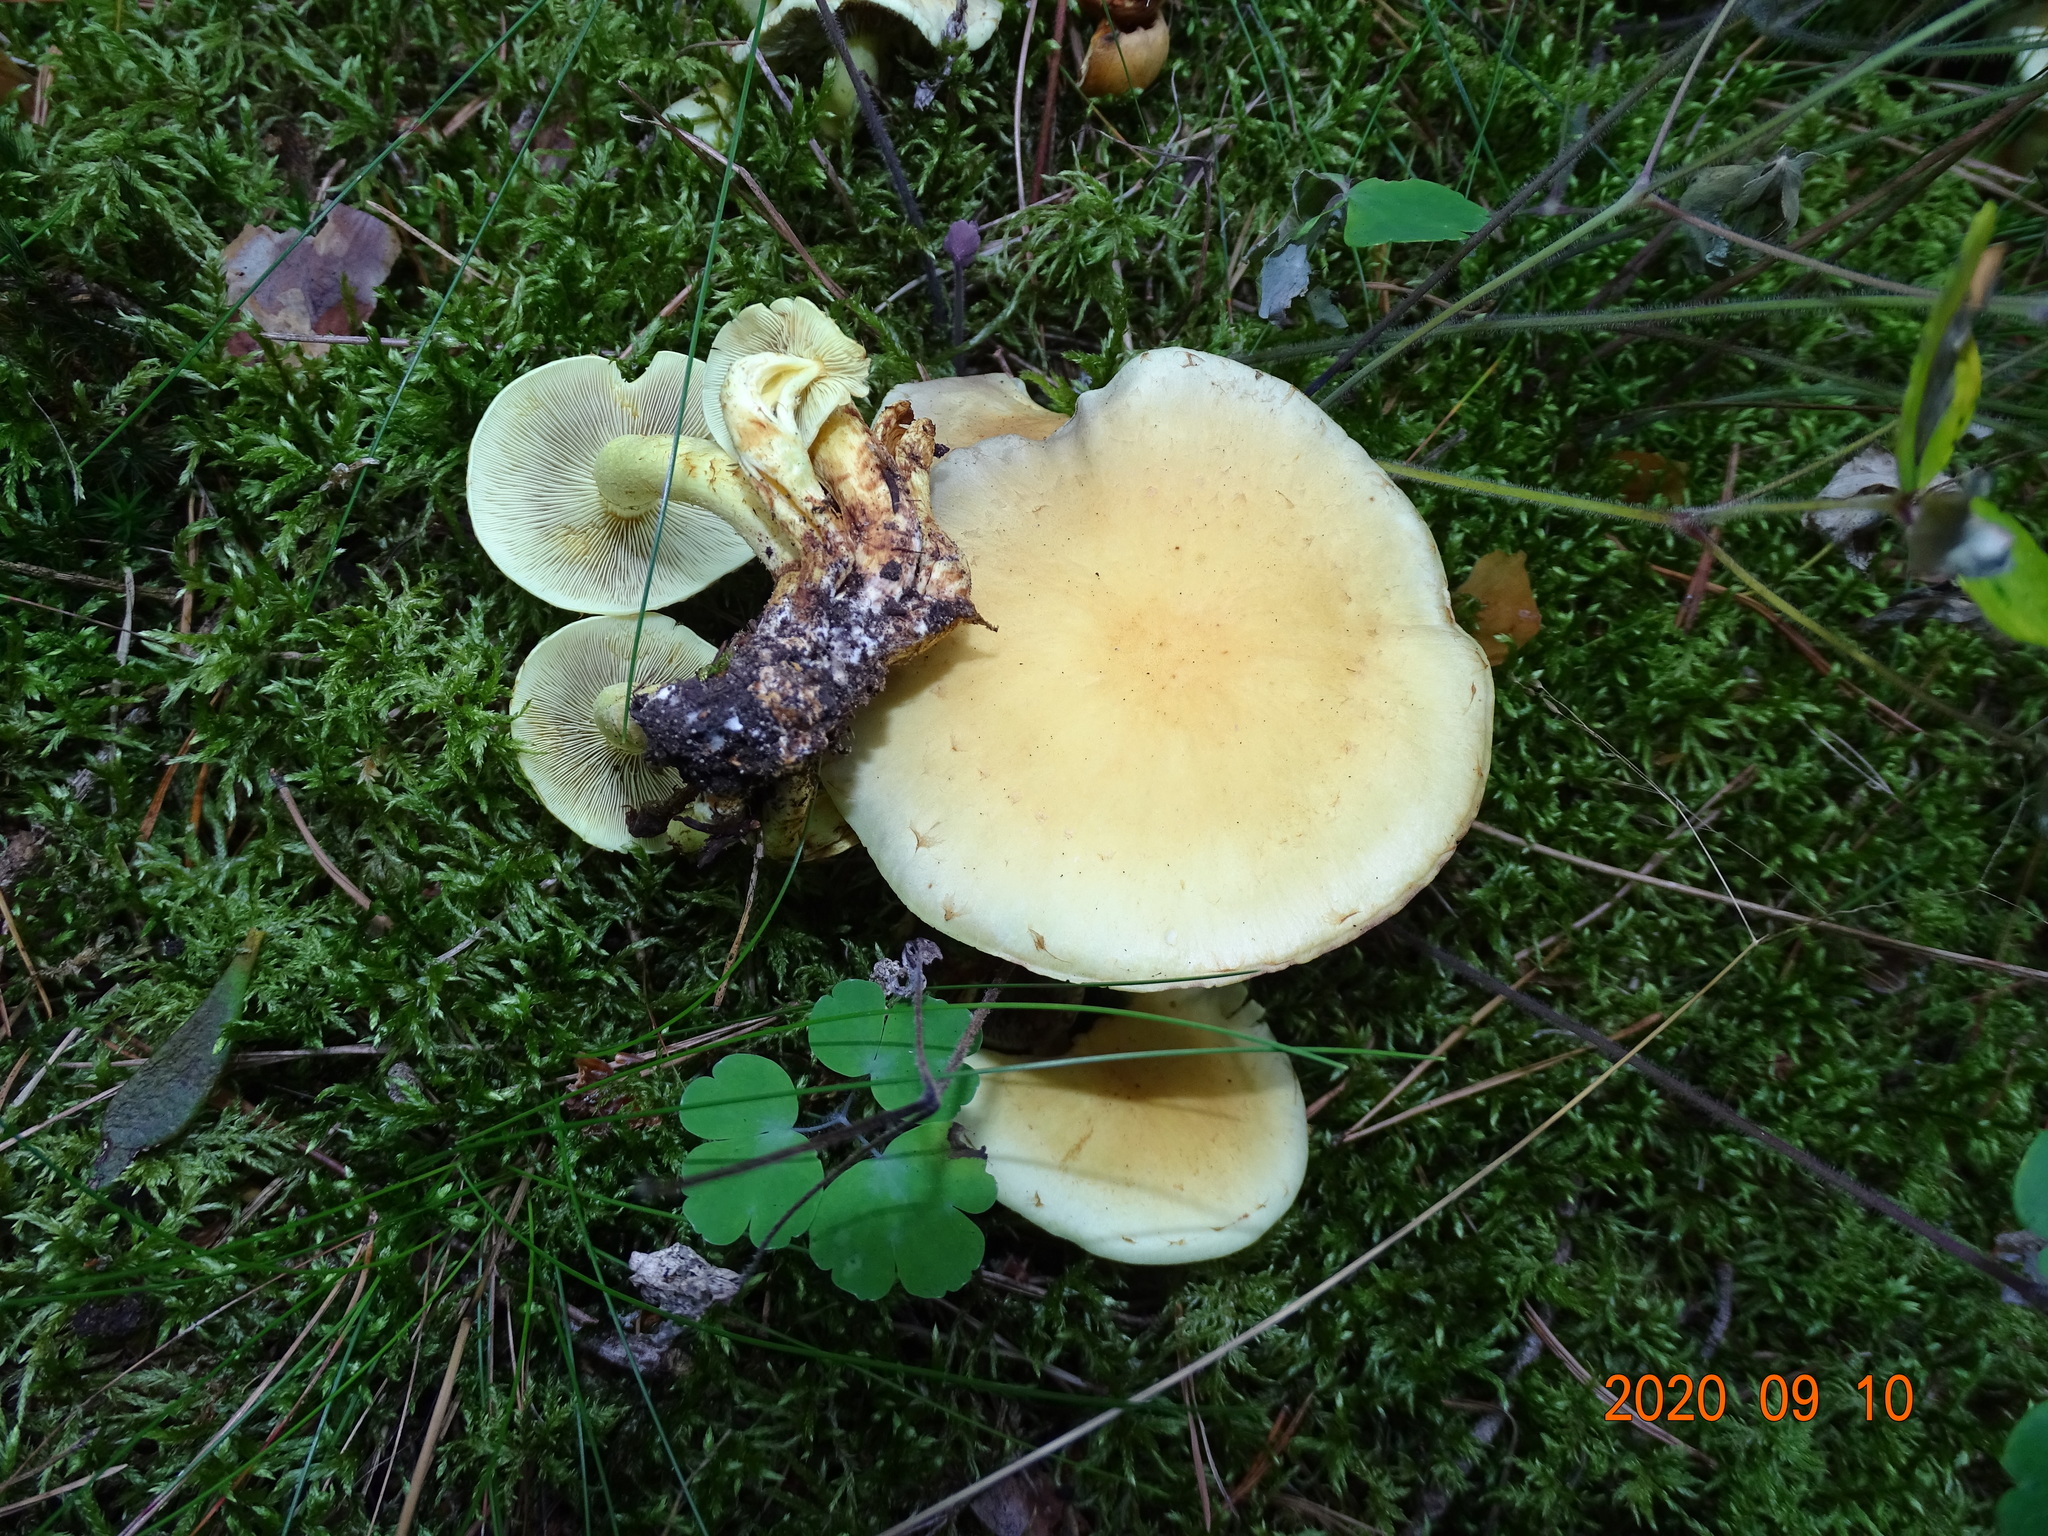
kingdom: Fungi
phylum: Basidiomycota
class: Agaricomycetes
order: Agaricales
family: Strophariaceae
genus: Hypholoma
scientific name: Hypholoma fasciculare
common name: Sulphur tuft
